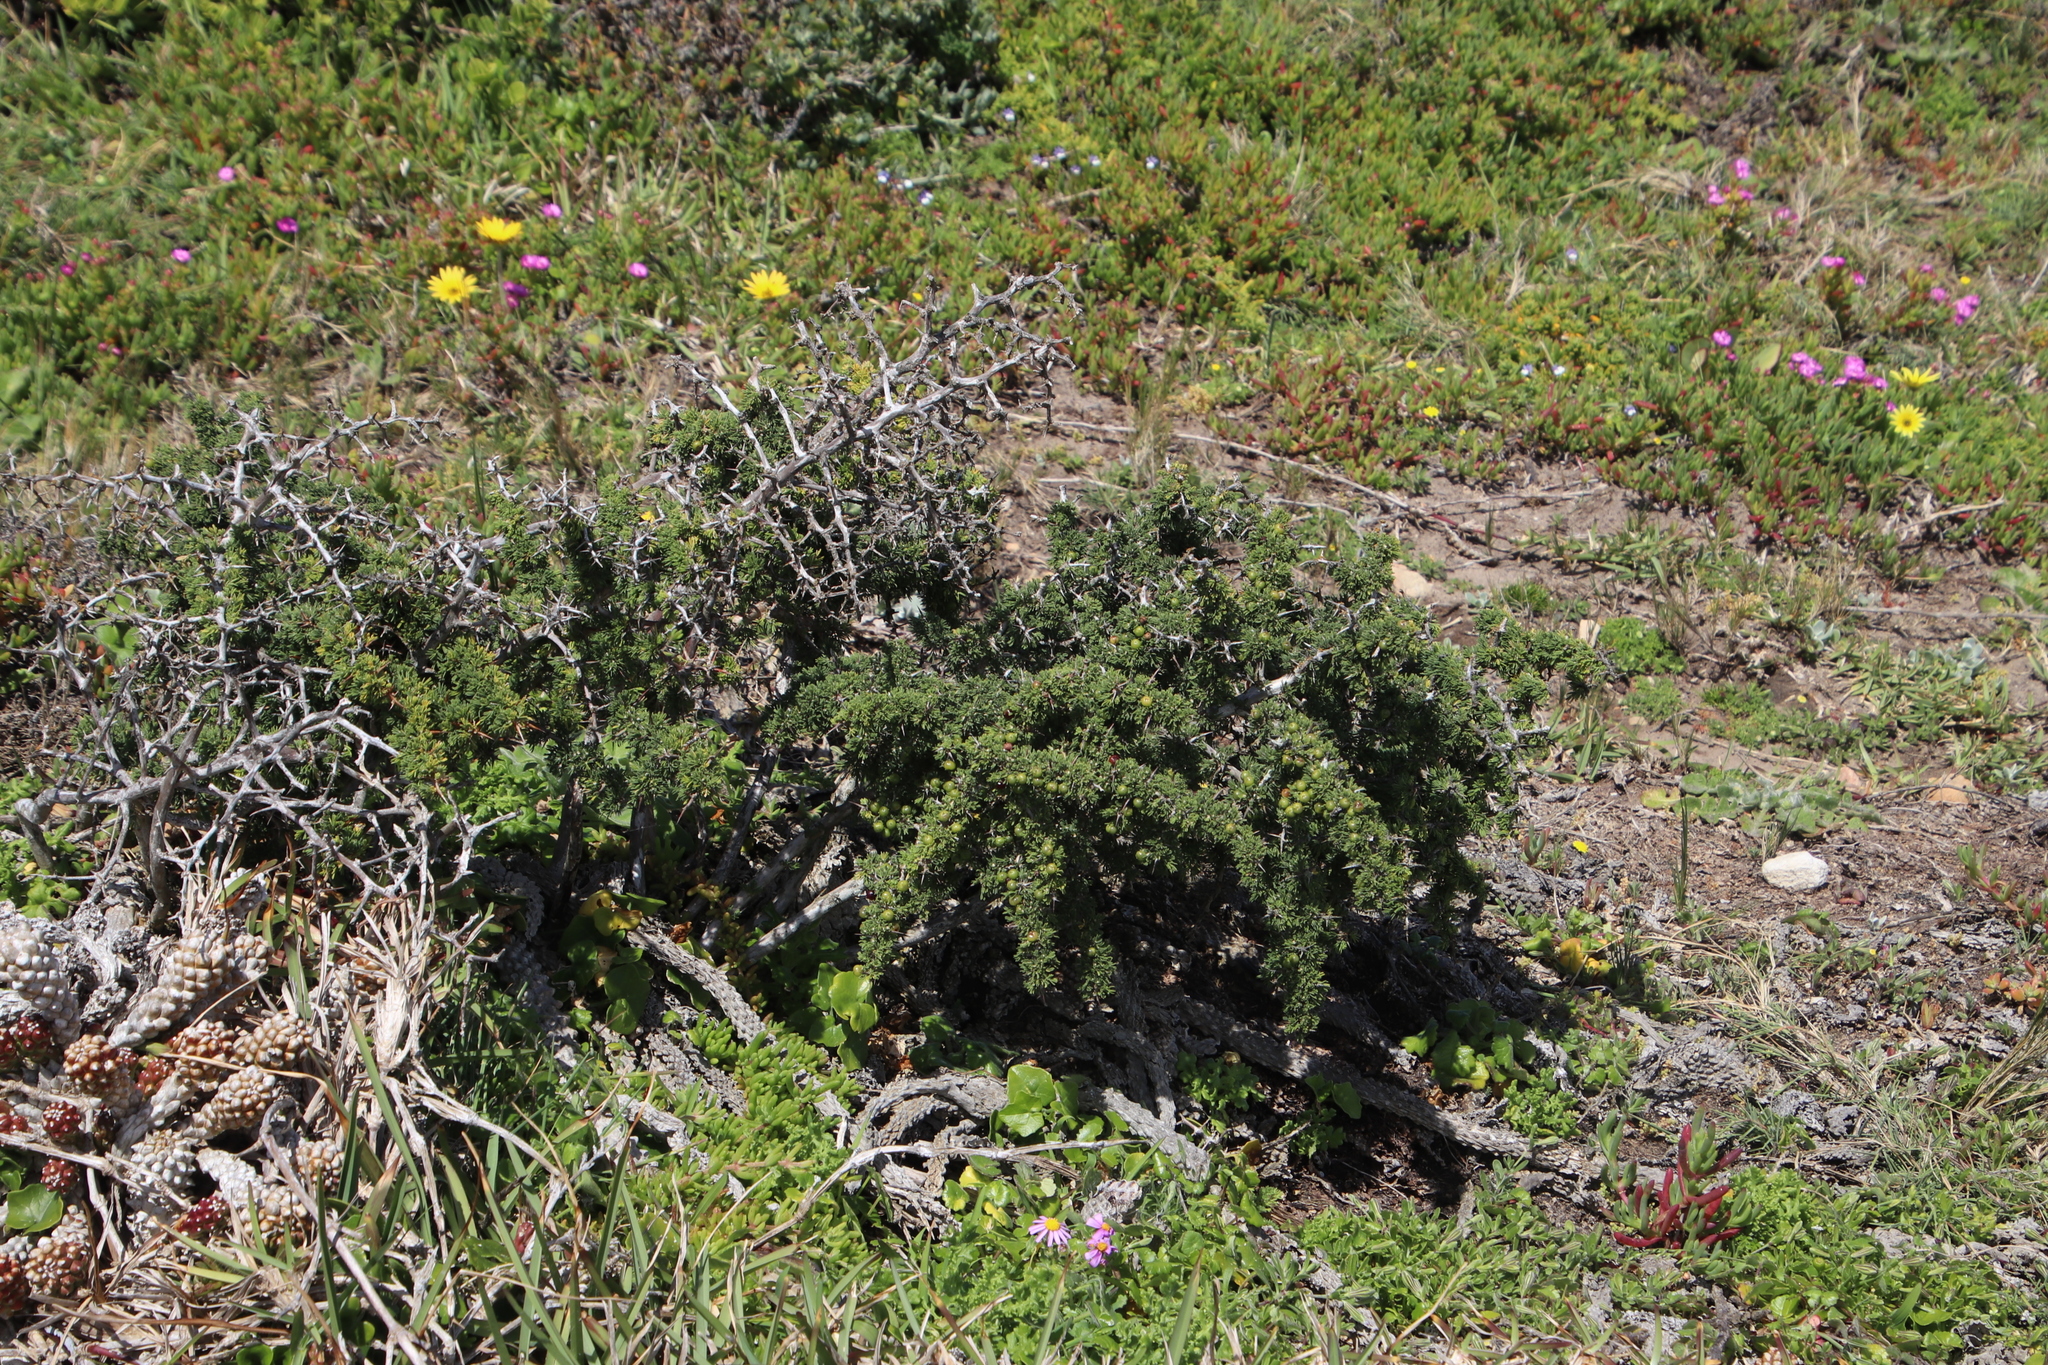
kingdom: Plantae
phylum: Tracheophyta
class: Liliopsida
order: Asparagales
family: Asparagaceae
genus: Asparagus
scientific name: Asparagus capensis
